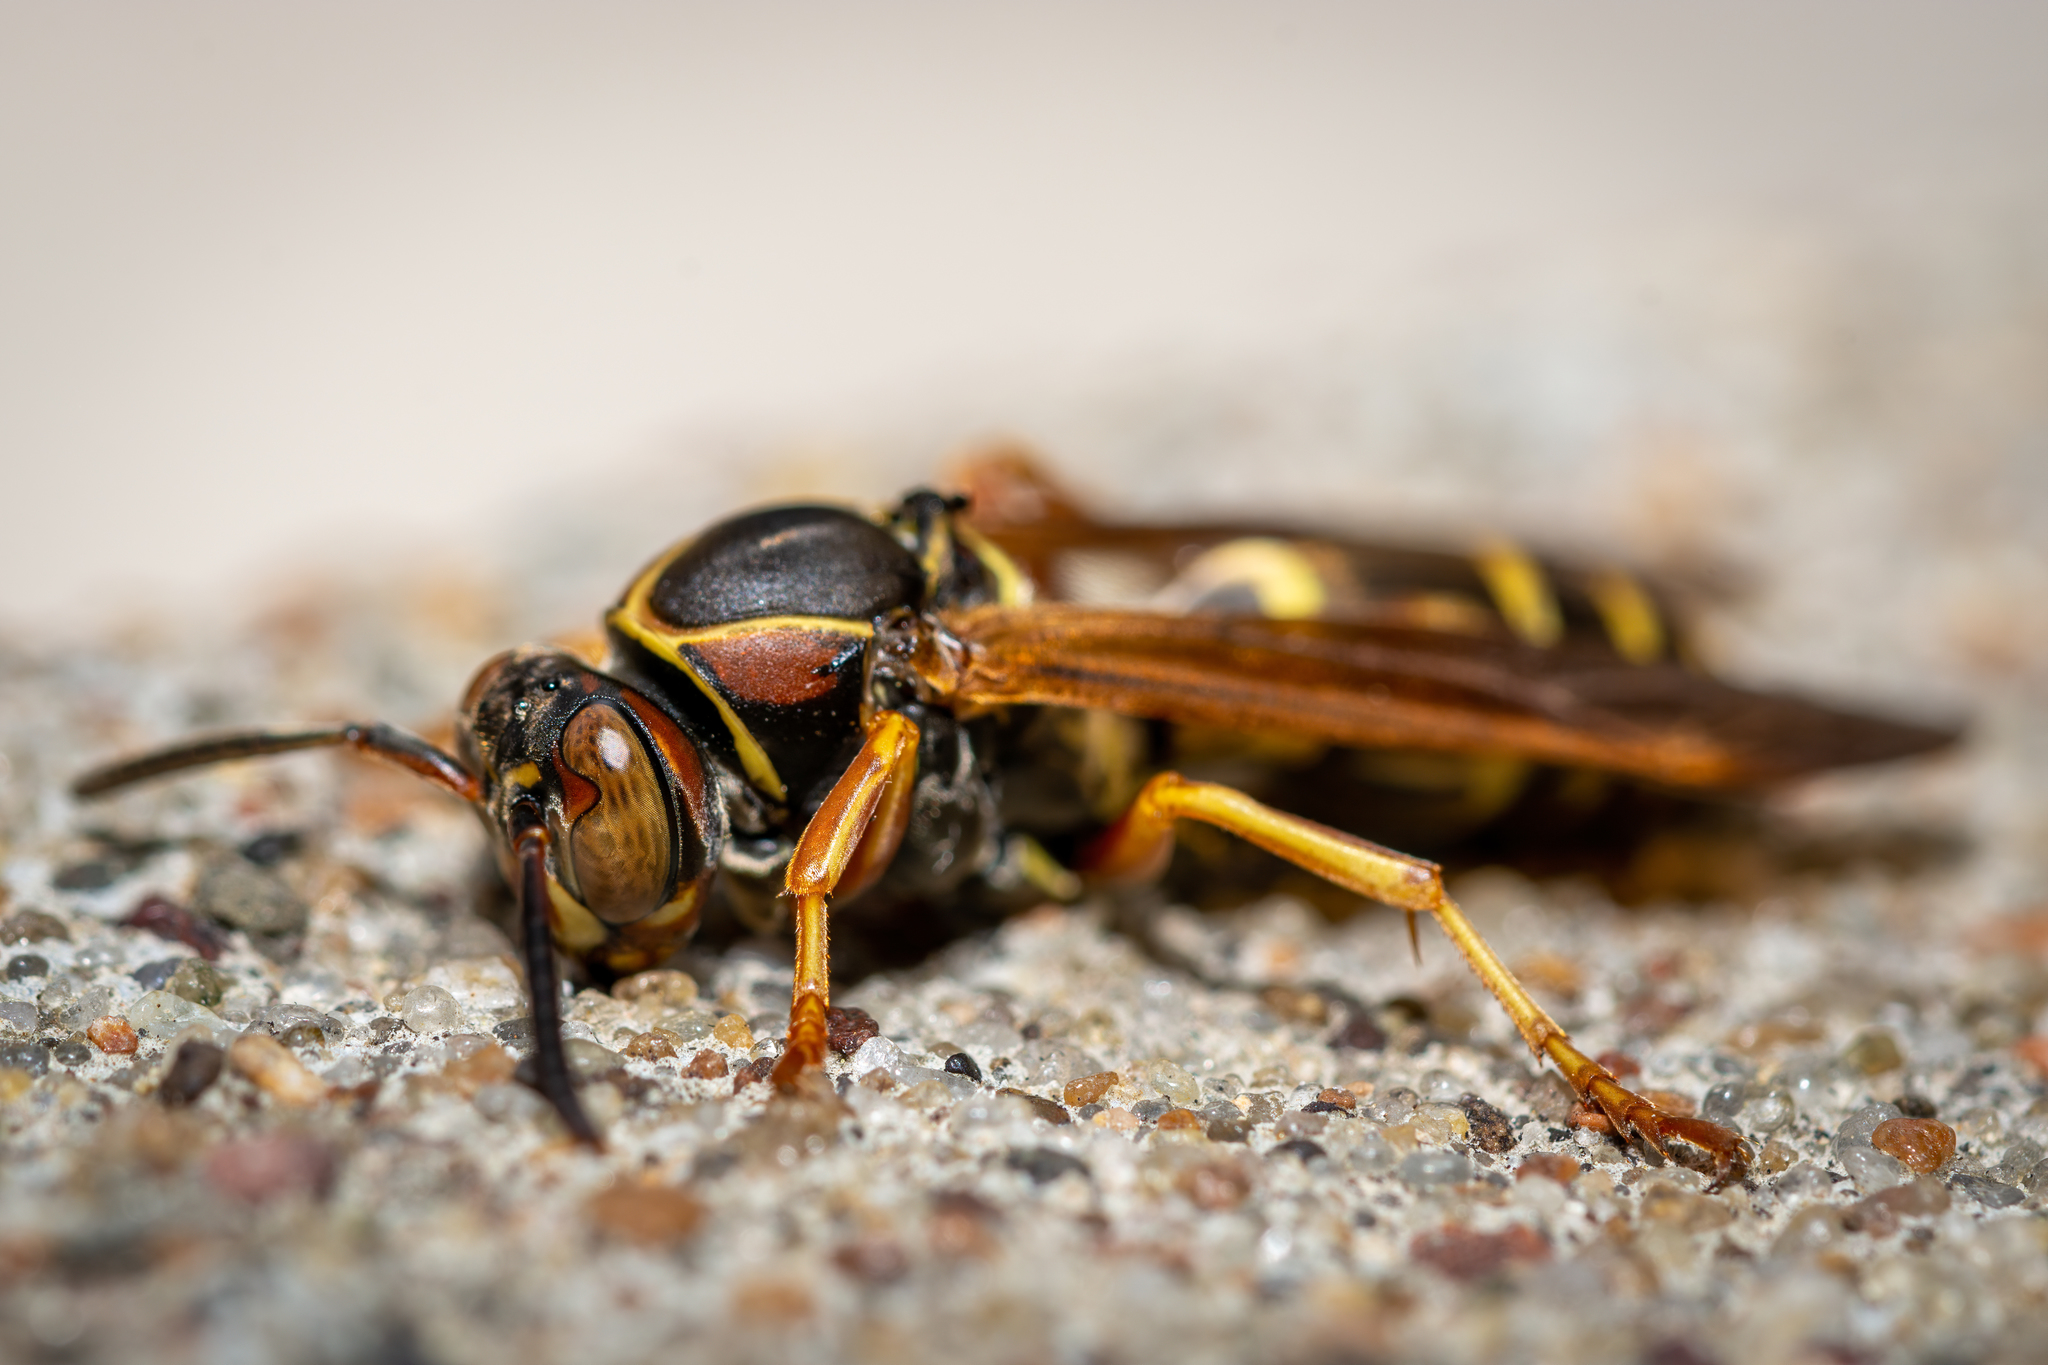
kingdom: Animalia
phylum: Arthropoda
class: Insecta
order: Hymenoptera
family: Eumenidae
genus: Polistes
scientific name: Polistes fuscatus
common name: Dark paper wasp
